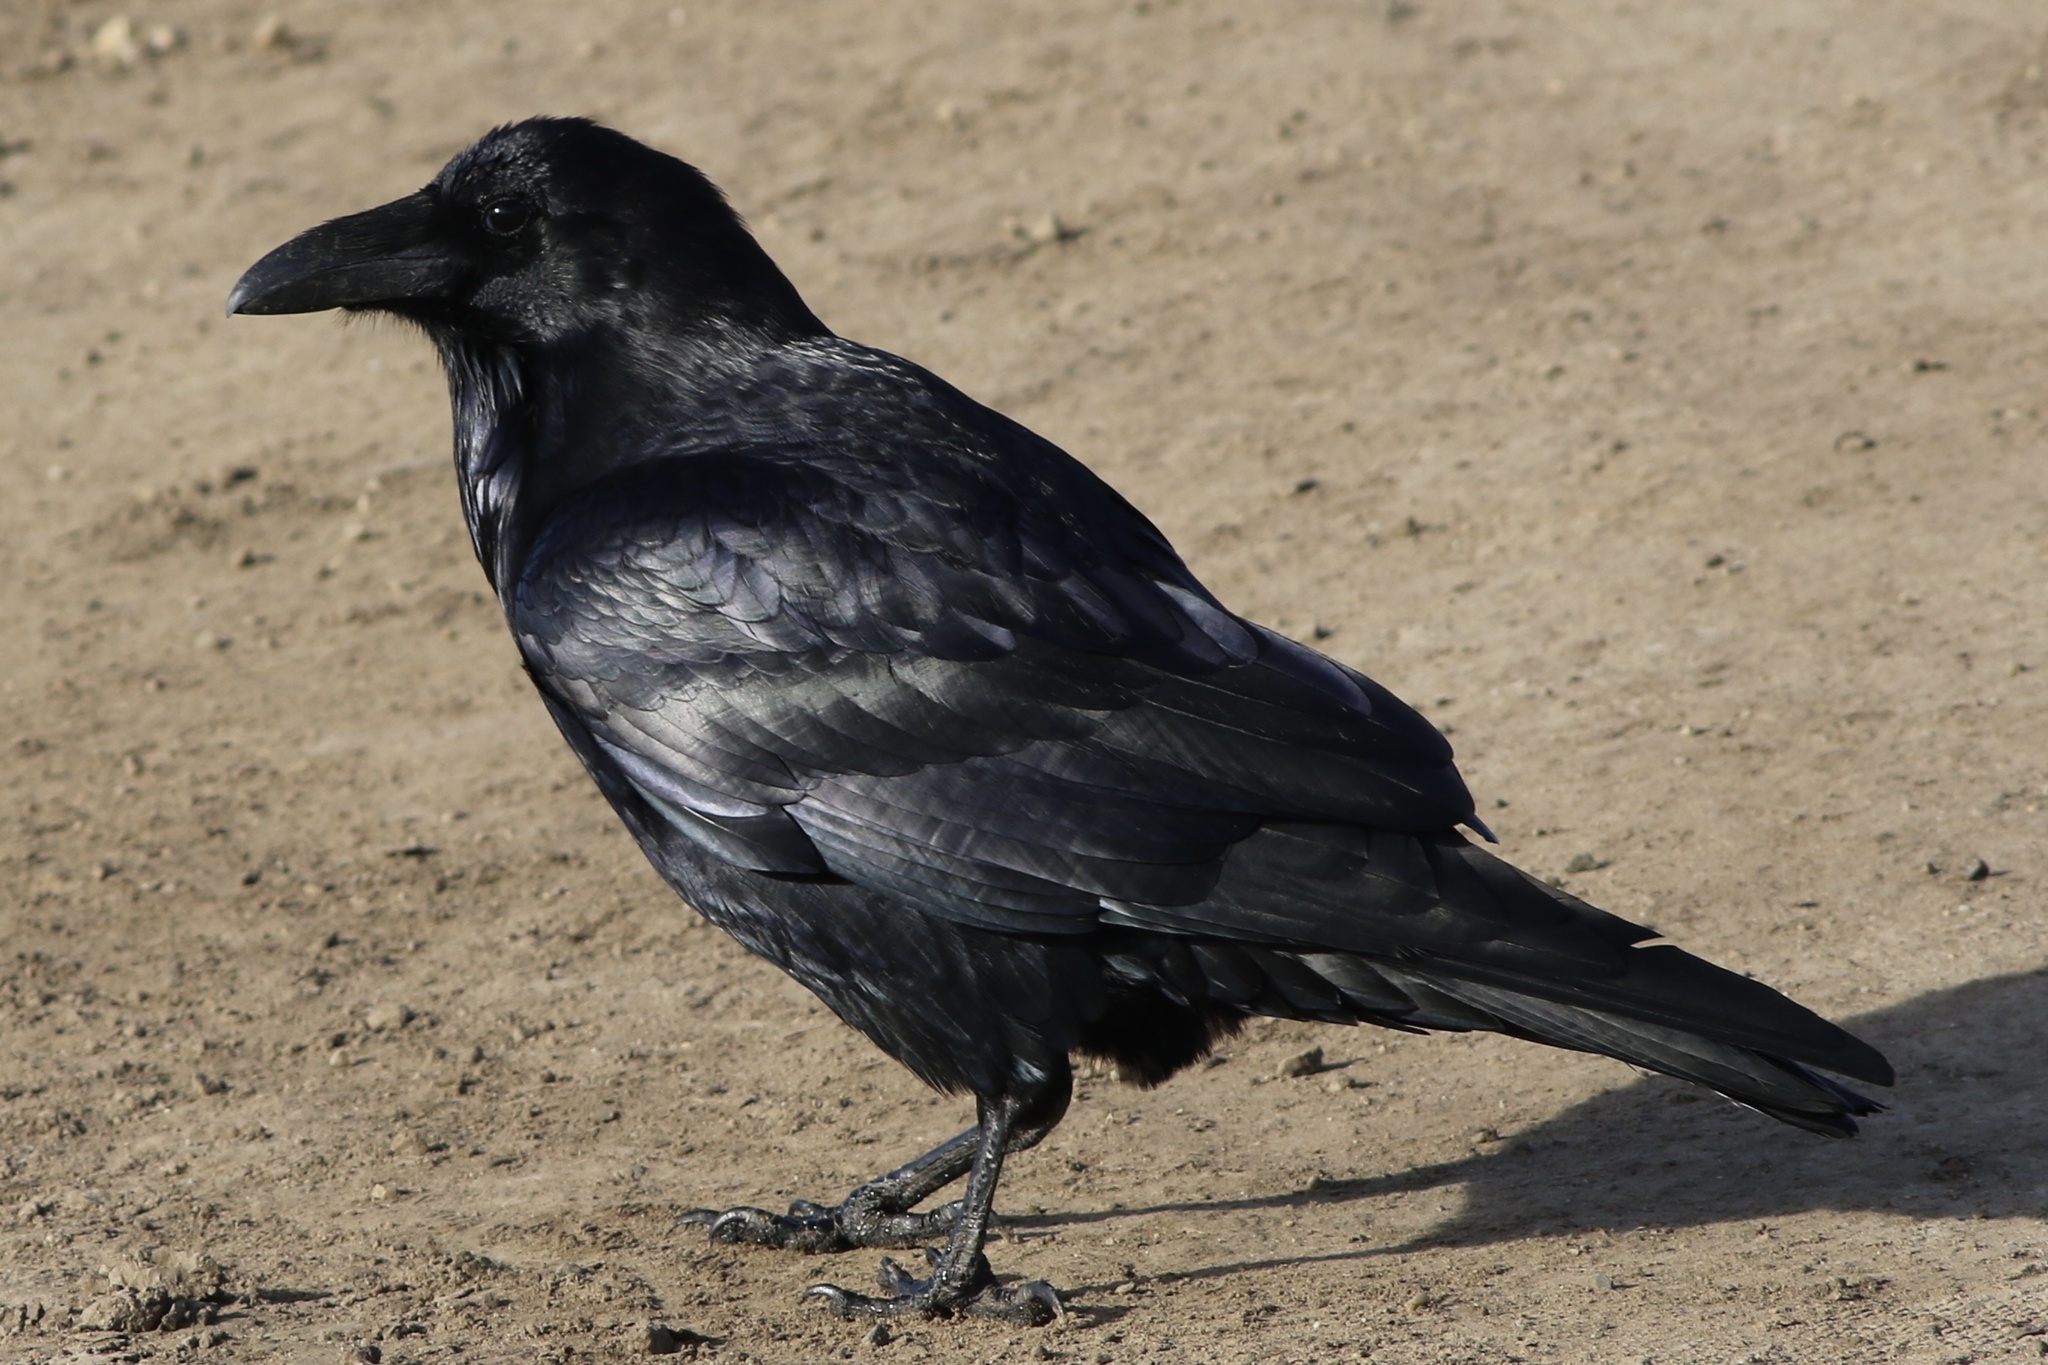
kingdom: Animalia
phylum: Chordata
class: Aves
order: Passeriformes
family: Corvidae
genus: Corvus
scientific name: Corvus corax
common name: Common raven
